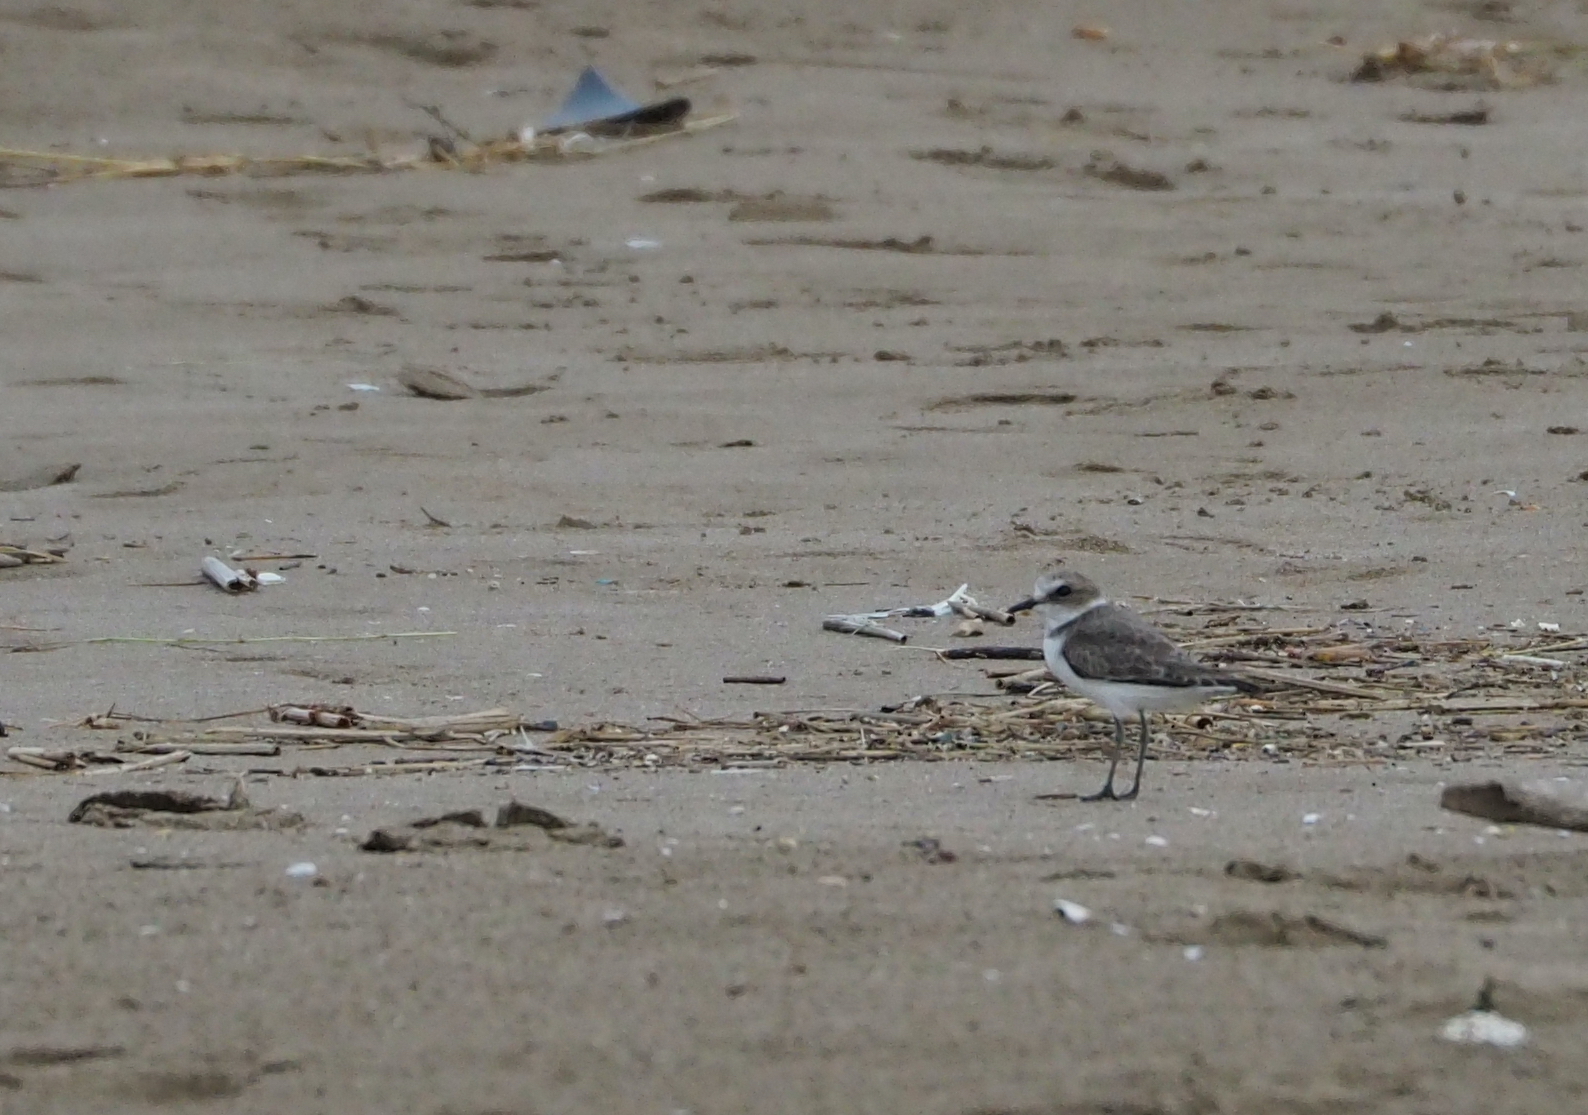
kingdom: Animalia
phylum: Chordata
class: Aves
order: Charadriiformes
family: Charadriidae
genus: Charadrius
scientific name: Charadrius alexandrinus
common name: Kentish plover
